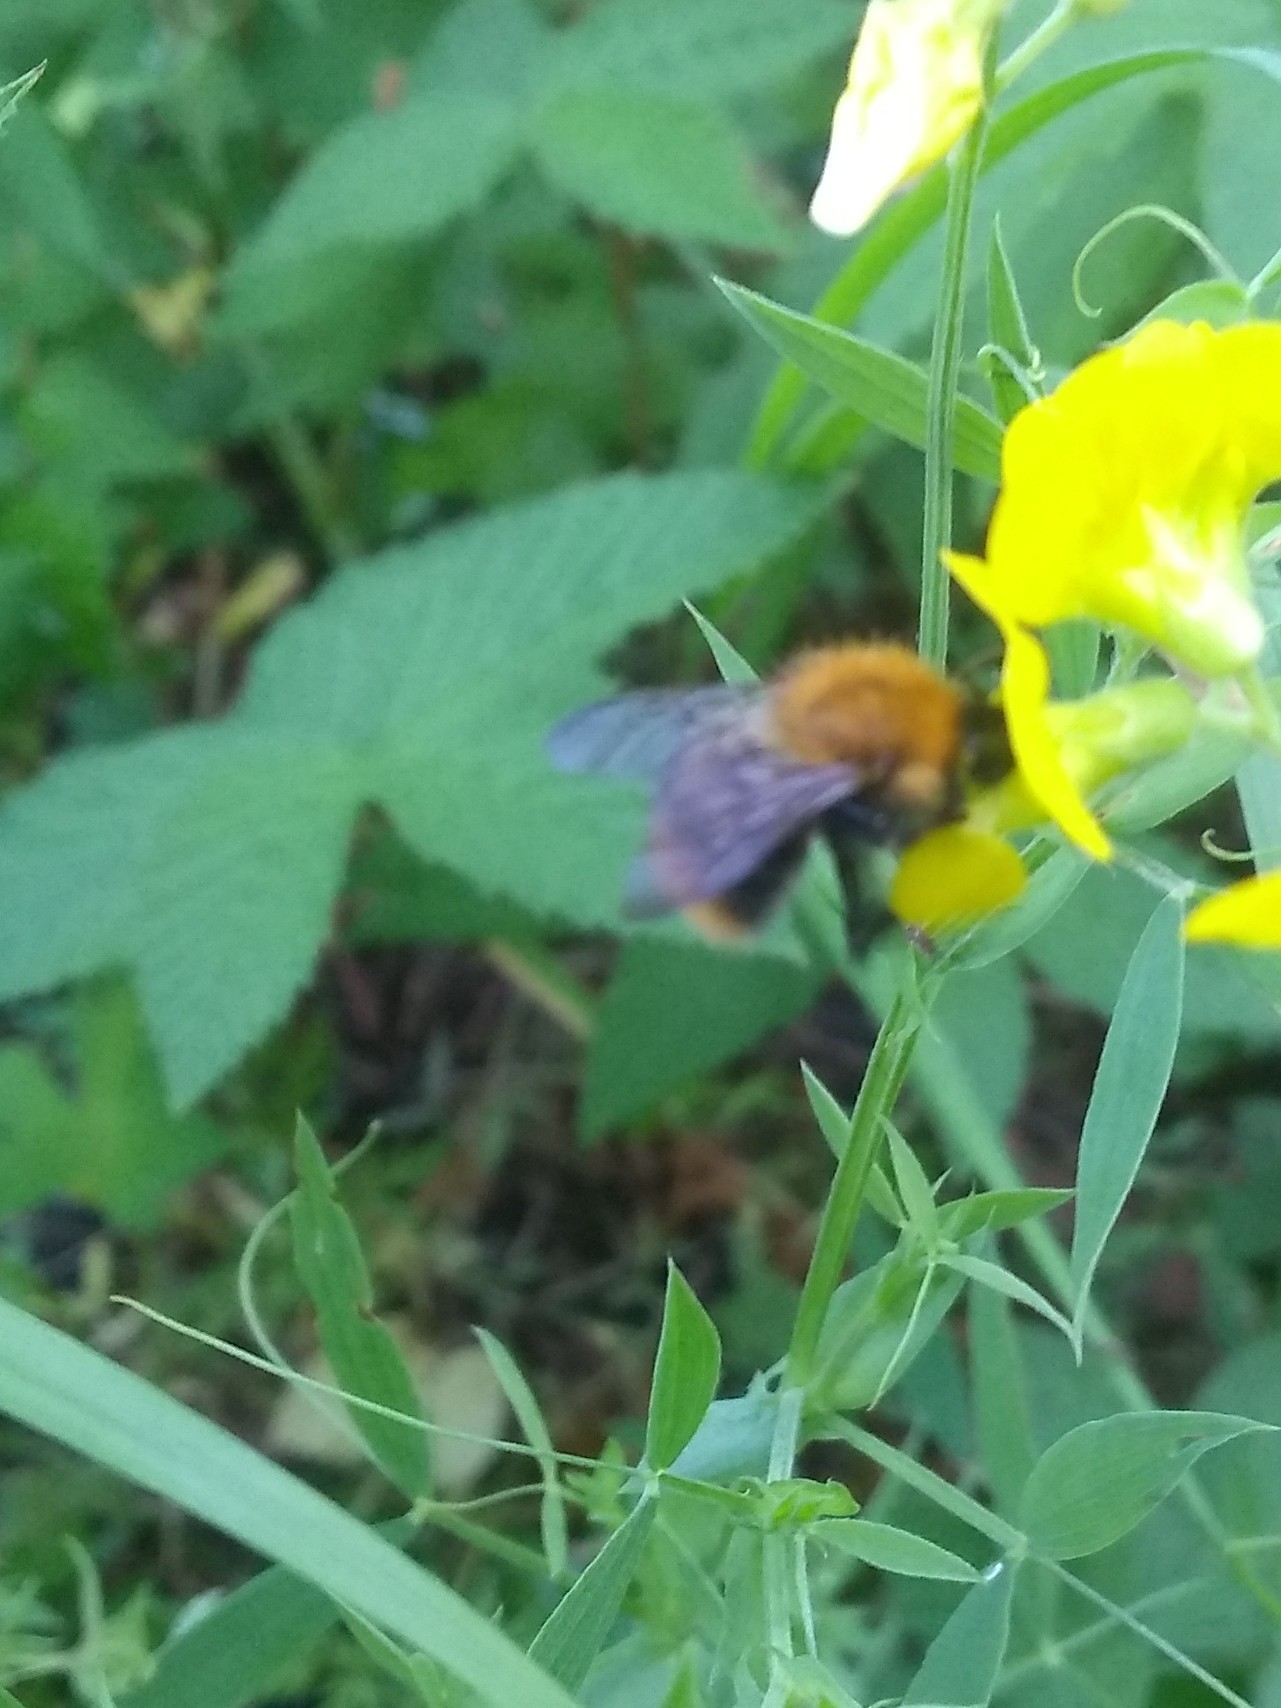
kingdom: Animalia
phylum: Arthropoda
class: Insecta
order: Hymenoptera
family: Apidae
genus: Bombus
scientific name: Bombus pascuorum
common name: Common carder bee
